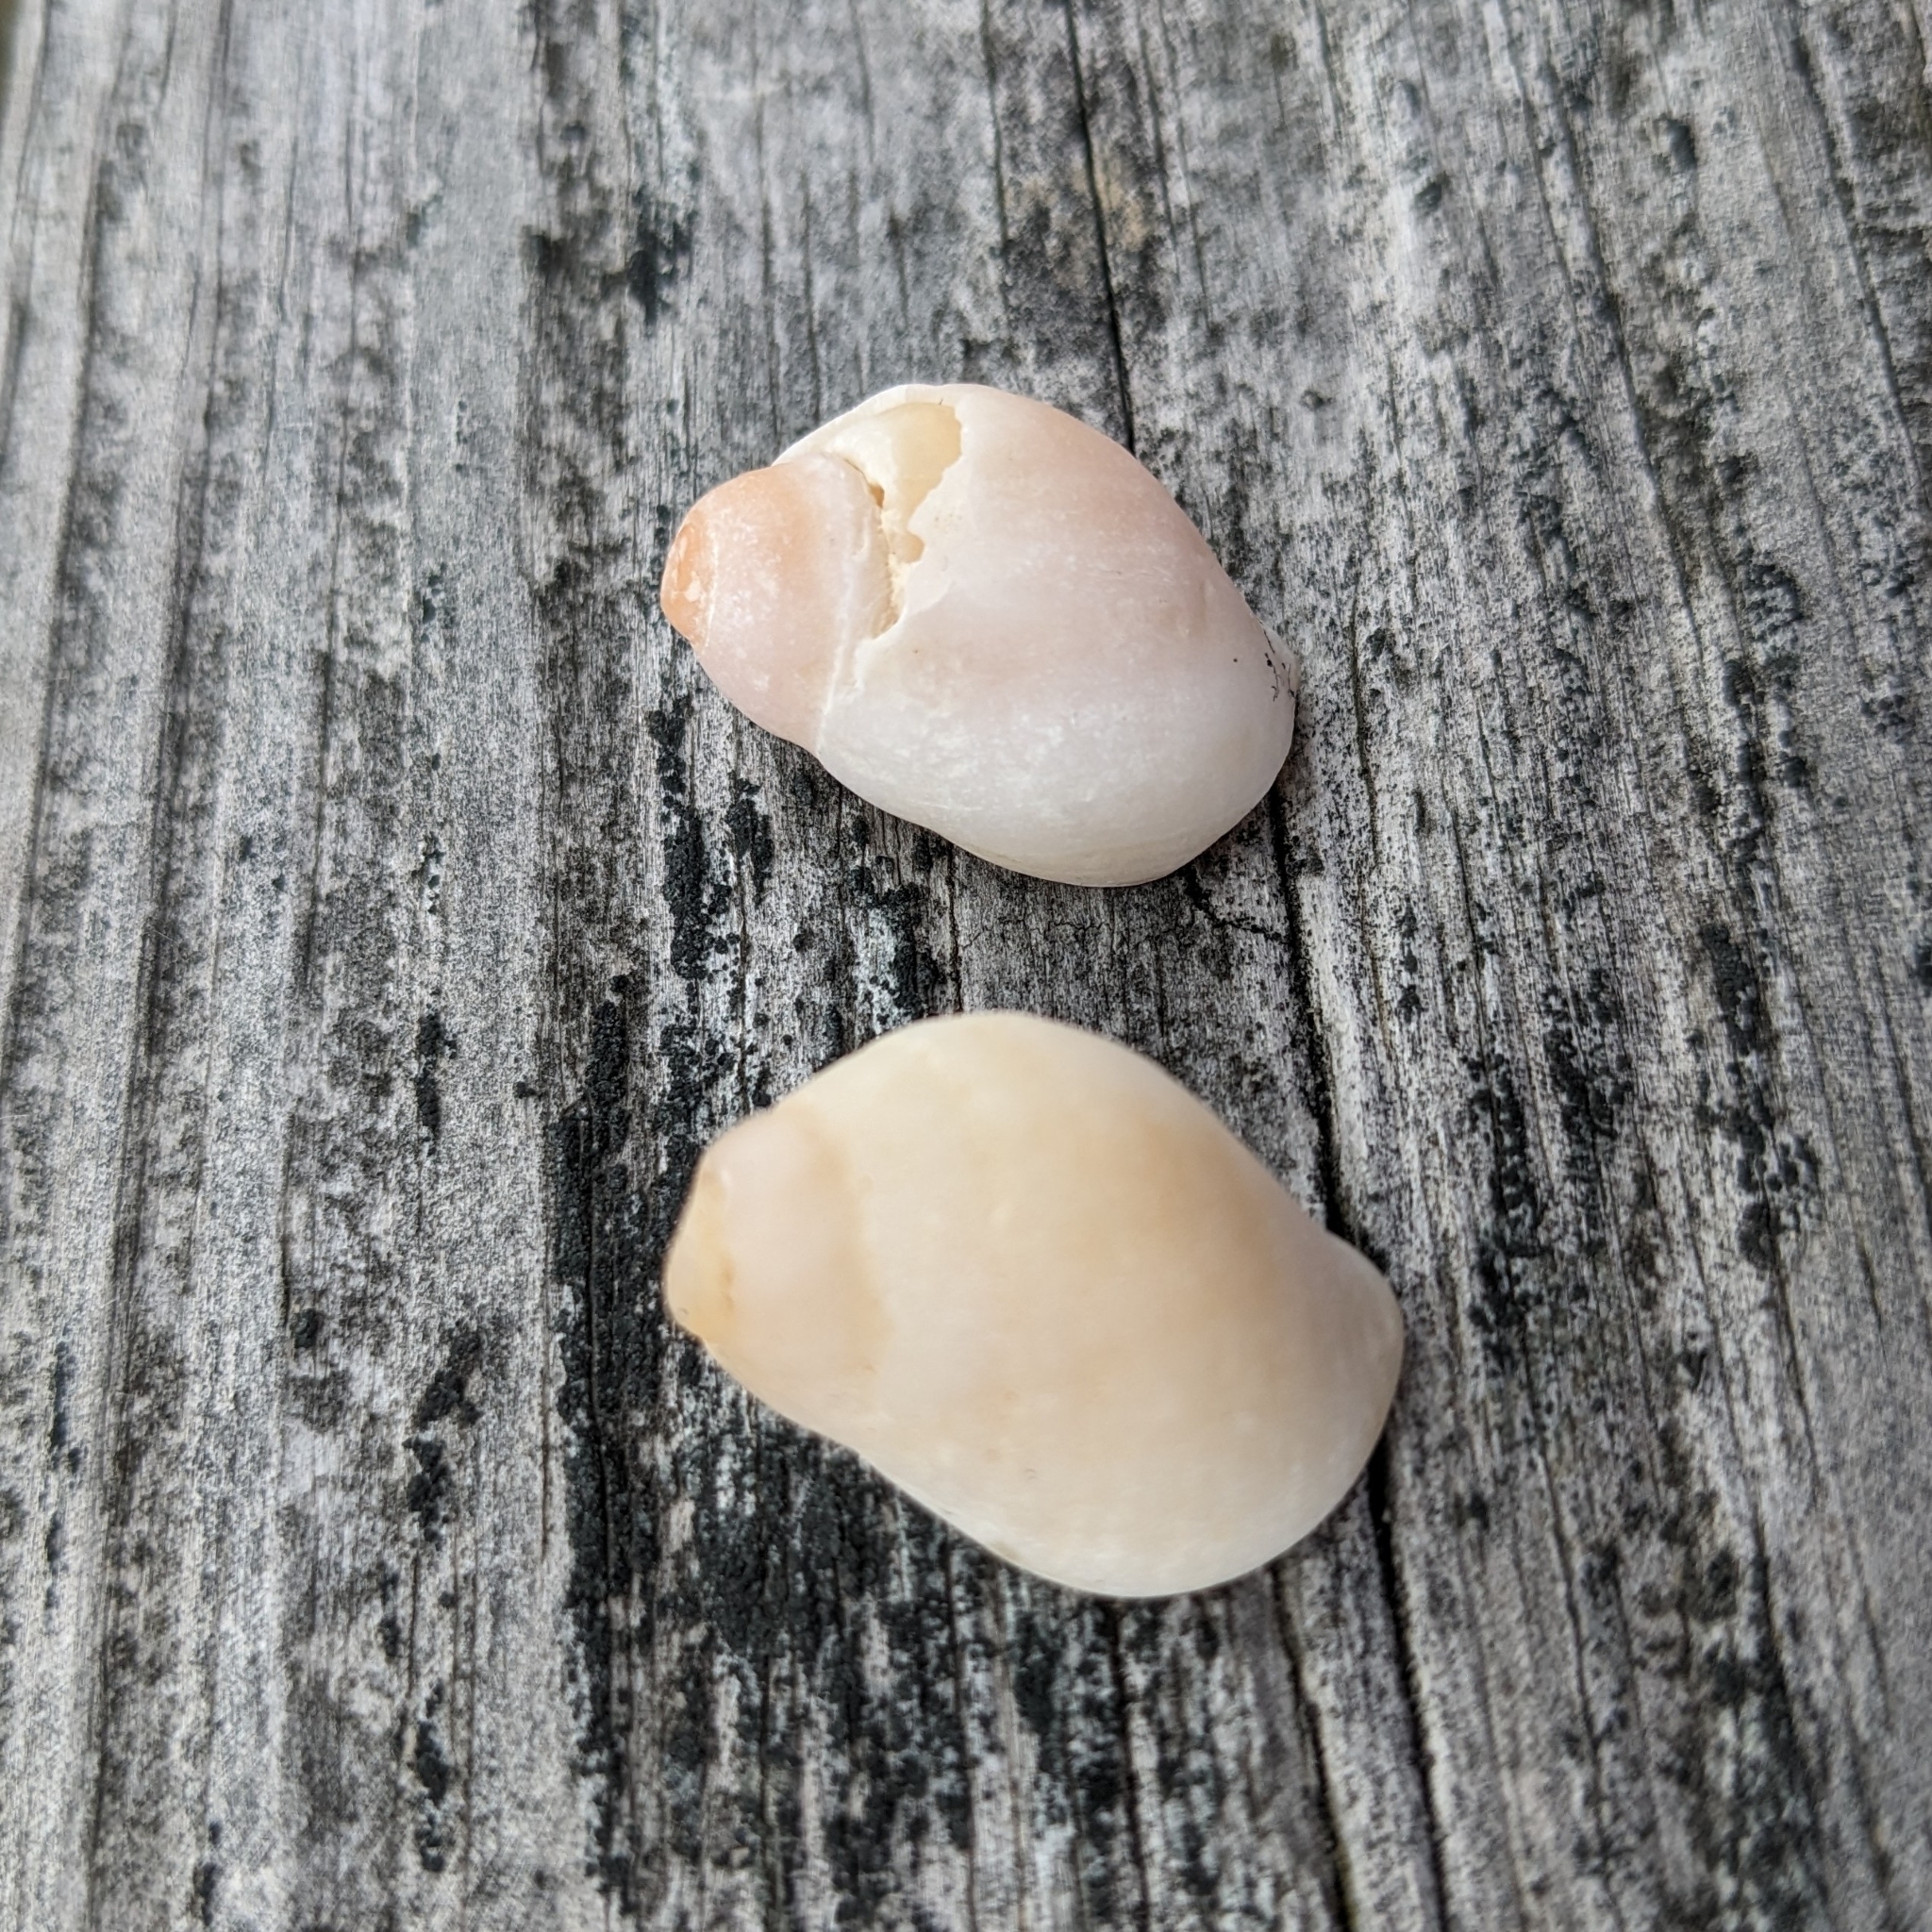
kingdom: Animalia
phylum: Mollusca
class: Gastropoda
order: Neogastropoda
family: Muricidae
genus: Nucella
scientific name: Nucella lapillus
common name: Dog whelk
